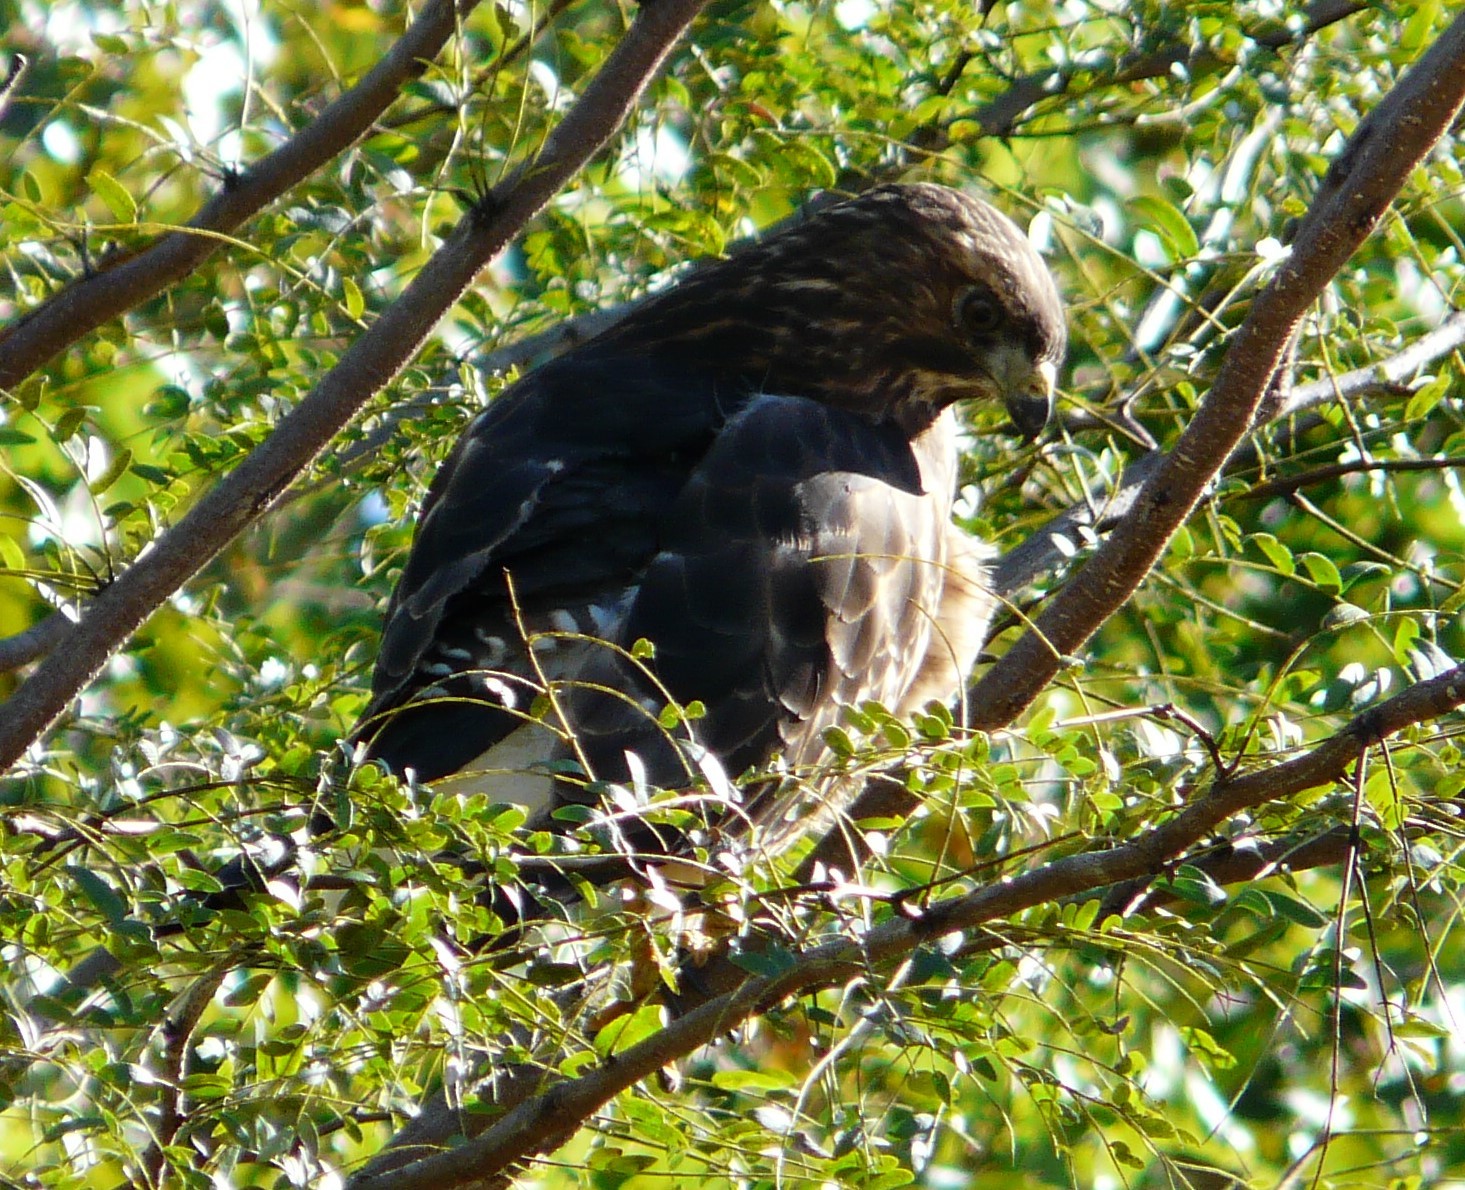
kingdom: Animalia
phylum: Chordata
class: Aves
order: Accipitriformes
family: Accipitridae
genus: Buteo
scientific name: Buteo platypterus
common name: Broad-winged hawk
